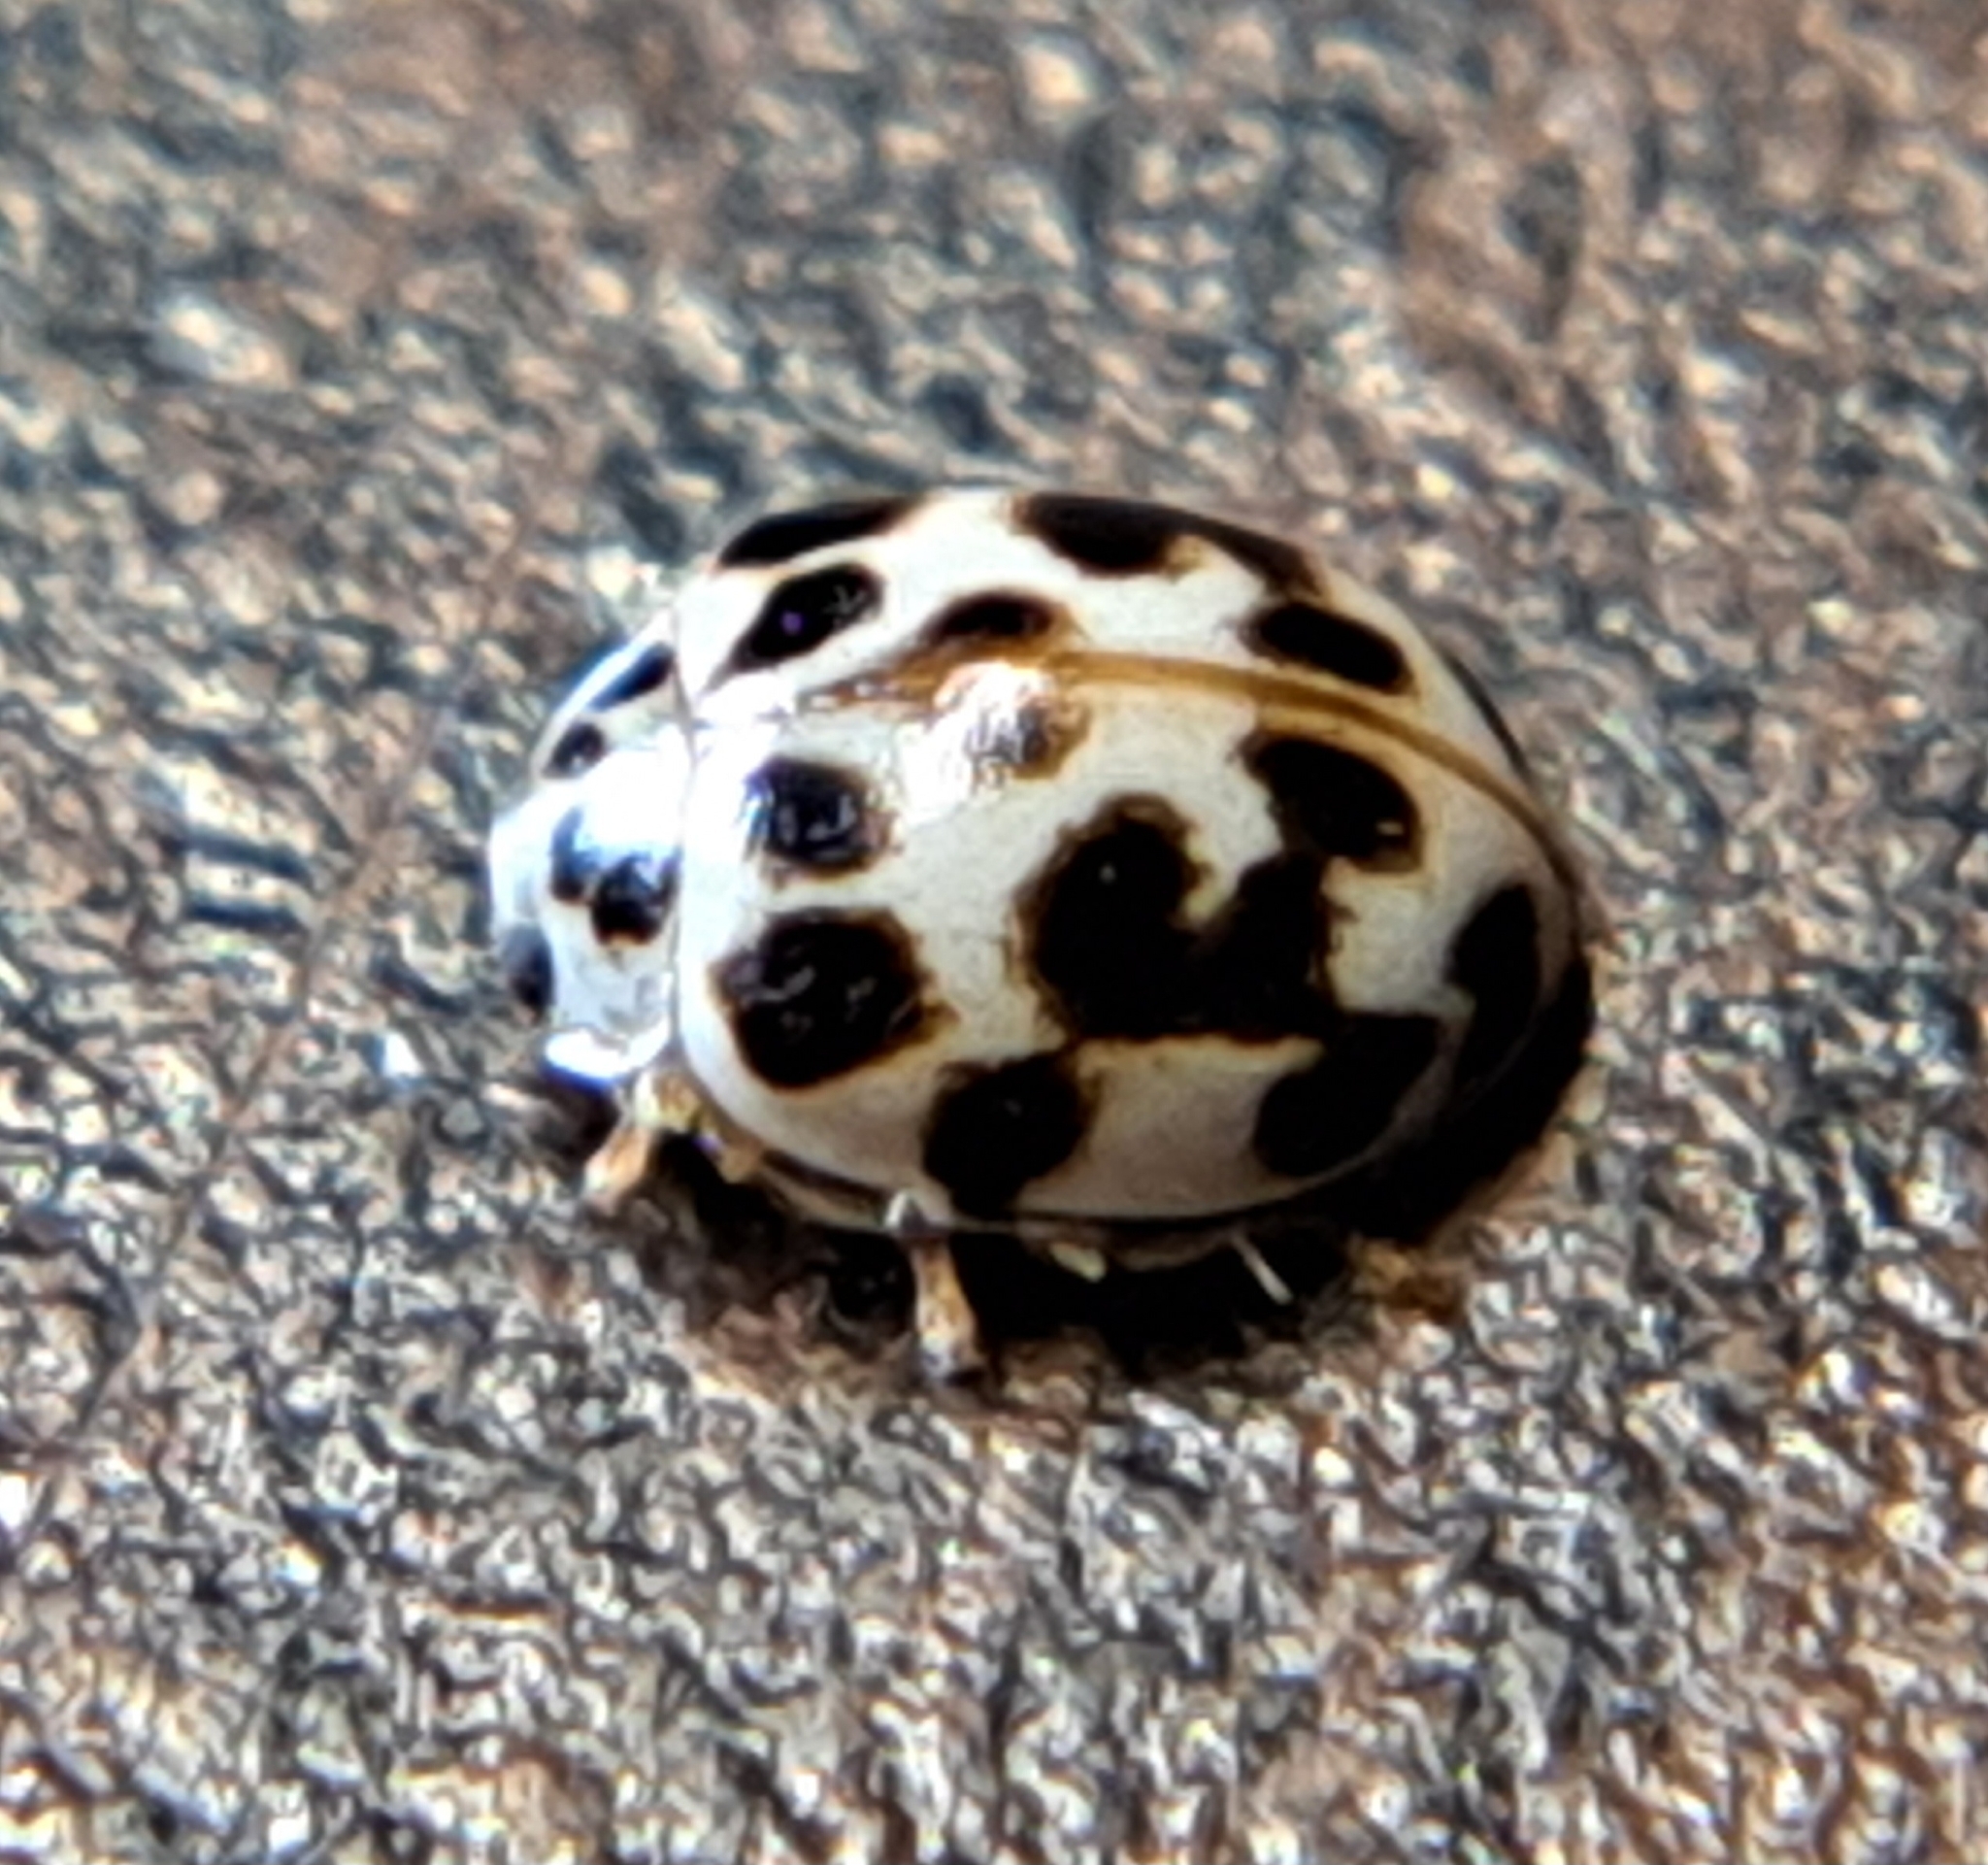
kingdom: Animalia
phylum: Arthropoda
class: Insecta
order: Coleoptera
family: Coccinellidae
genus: Psyllobora
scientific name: Psyllobora vigintimaculata
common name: Ladybird beetle
